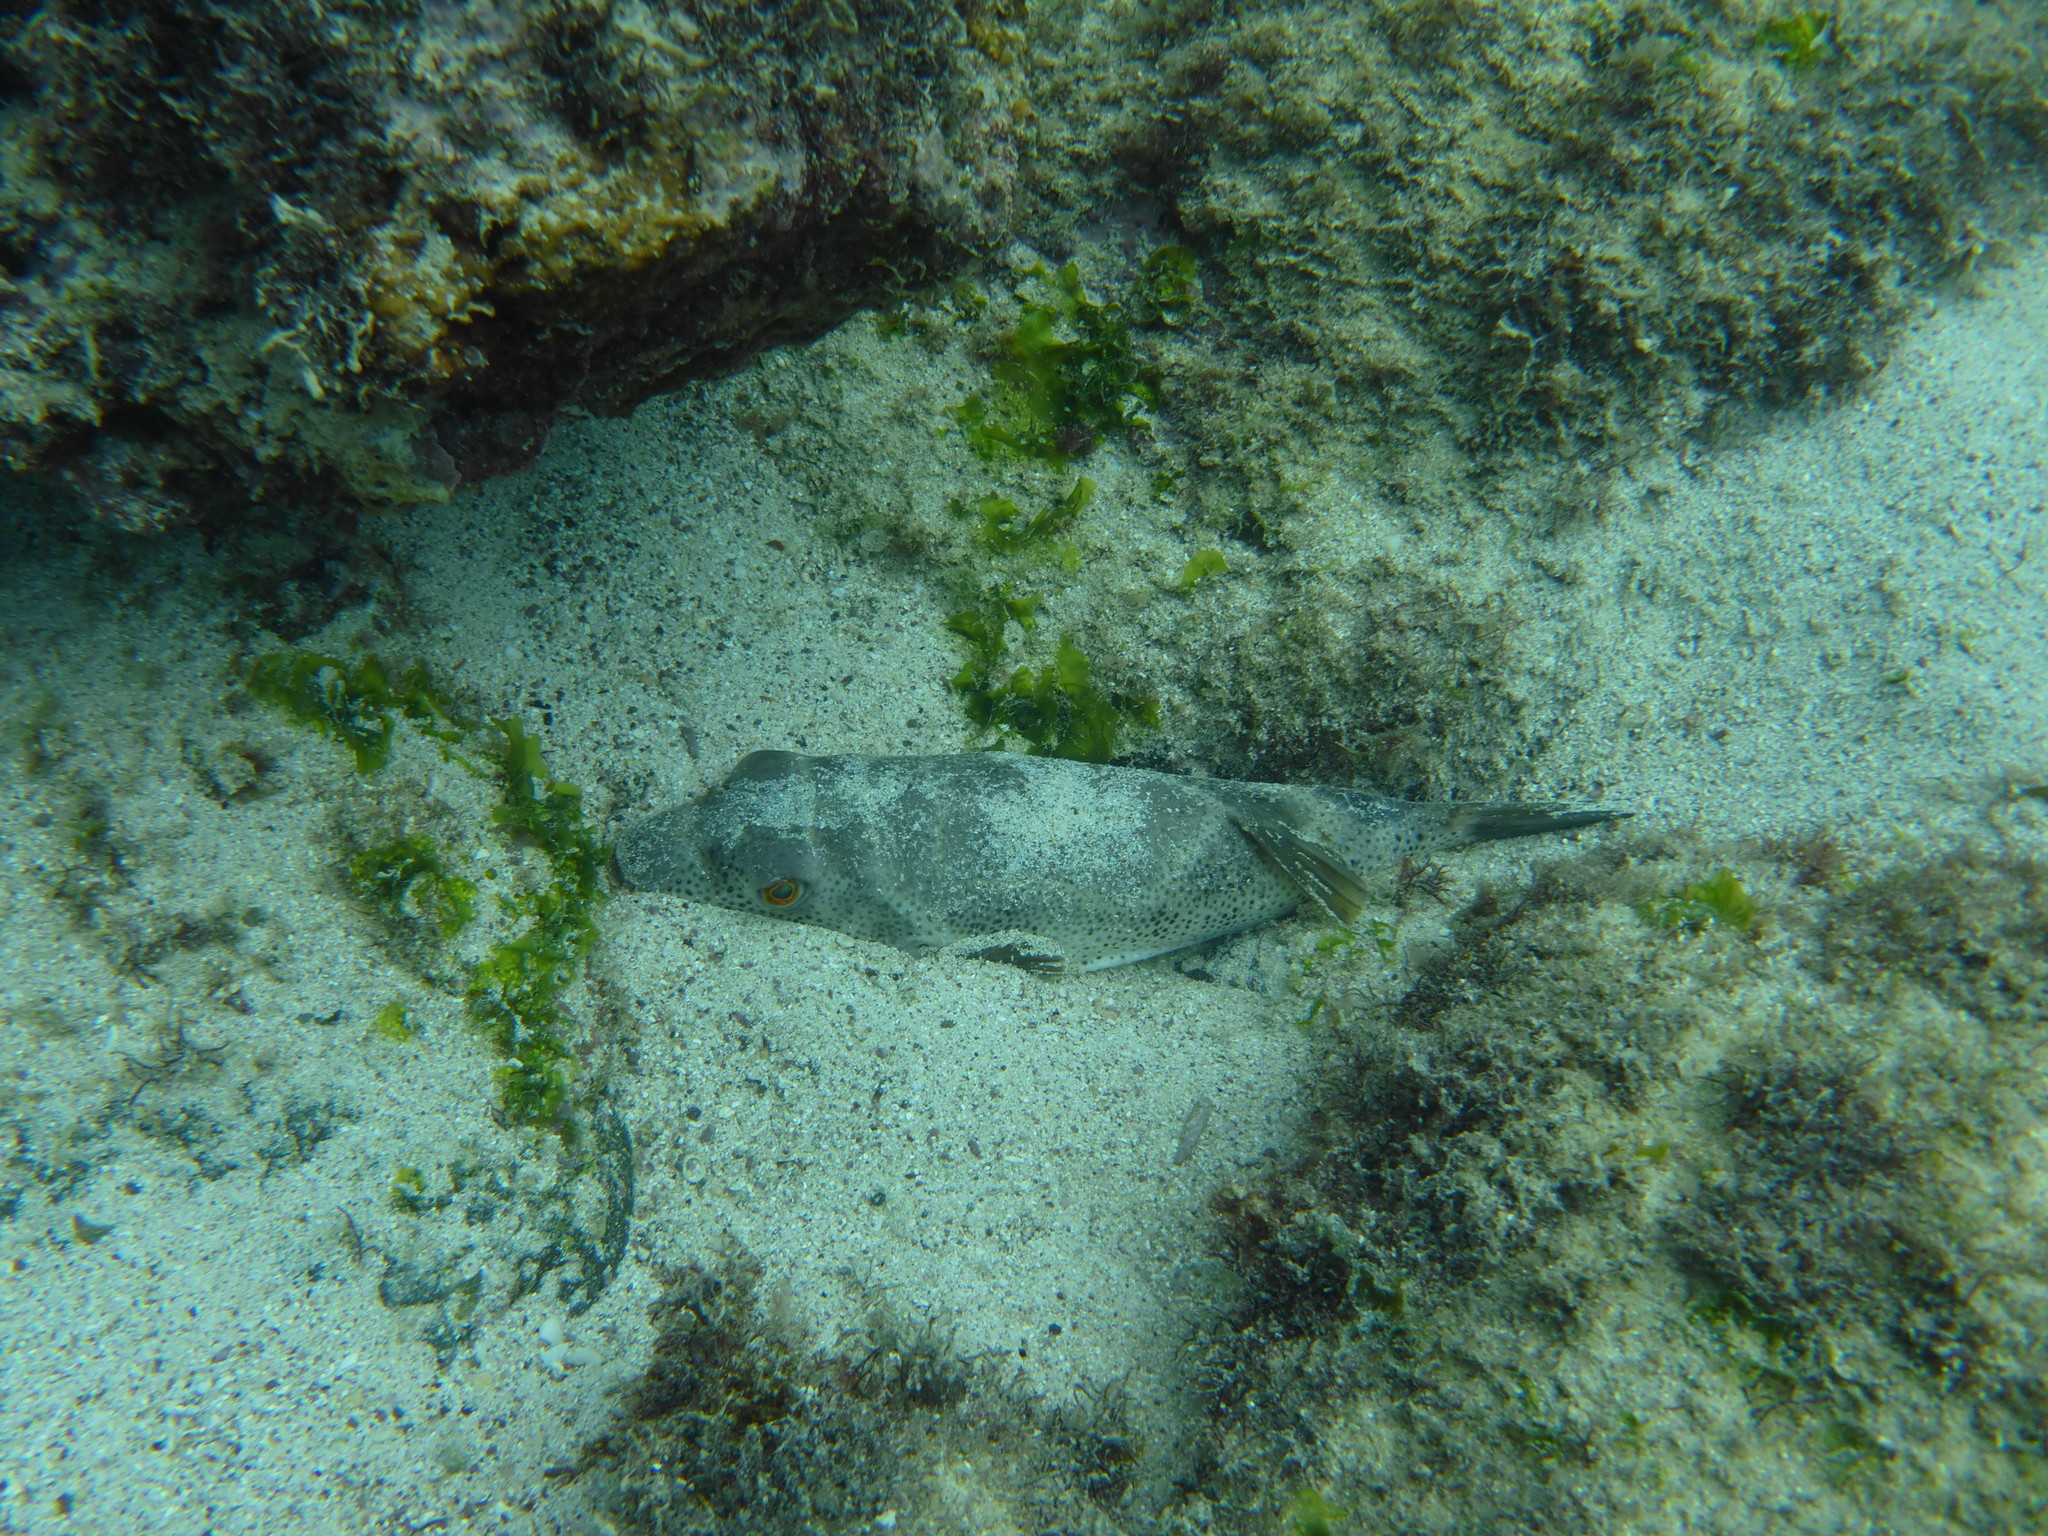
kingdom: Animalia
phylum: Chordata
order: Tetraodontiformes
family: Tetraodontidae
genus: Sphoeroides
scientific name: Sphoeroides annulatus
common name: Bullseye puffer
